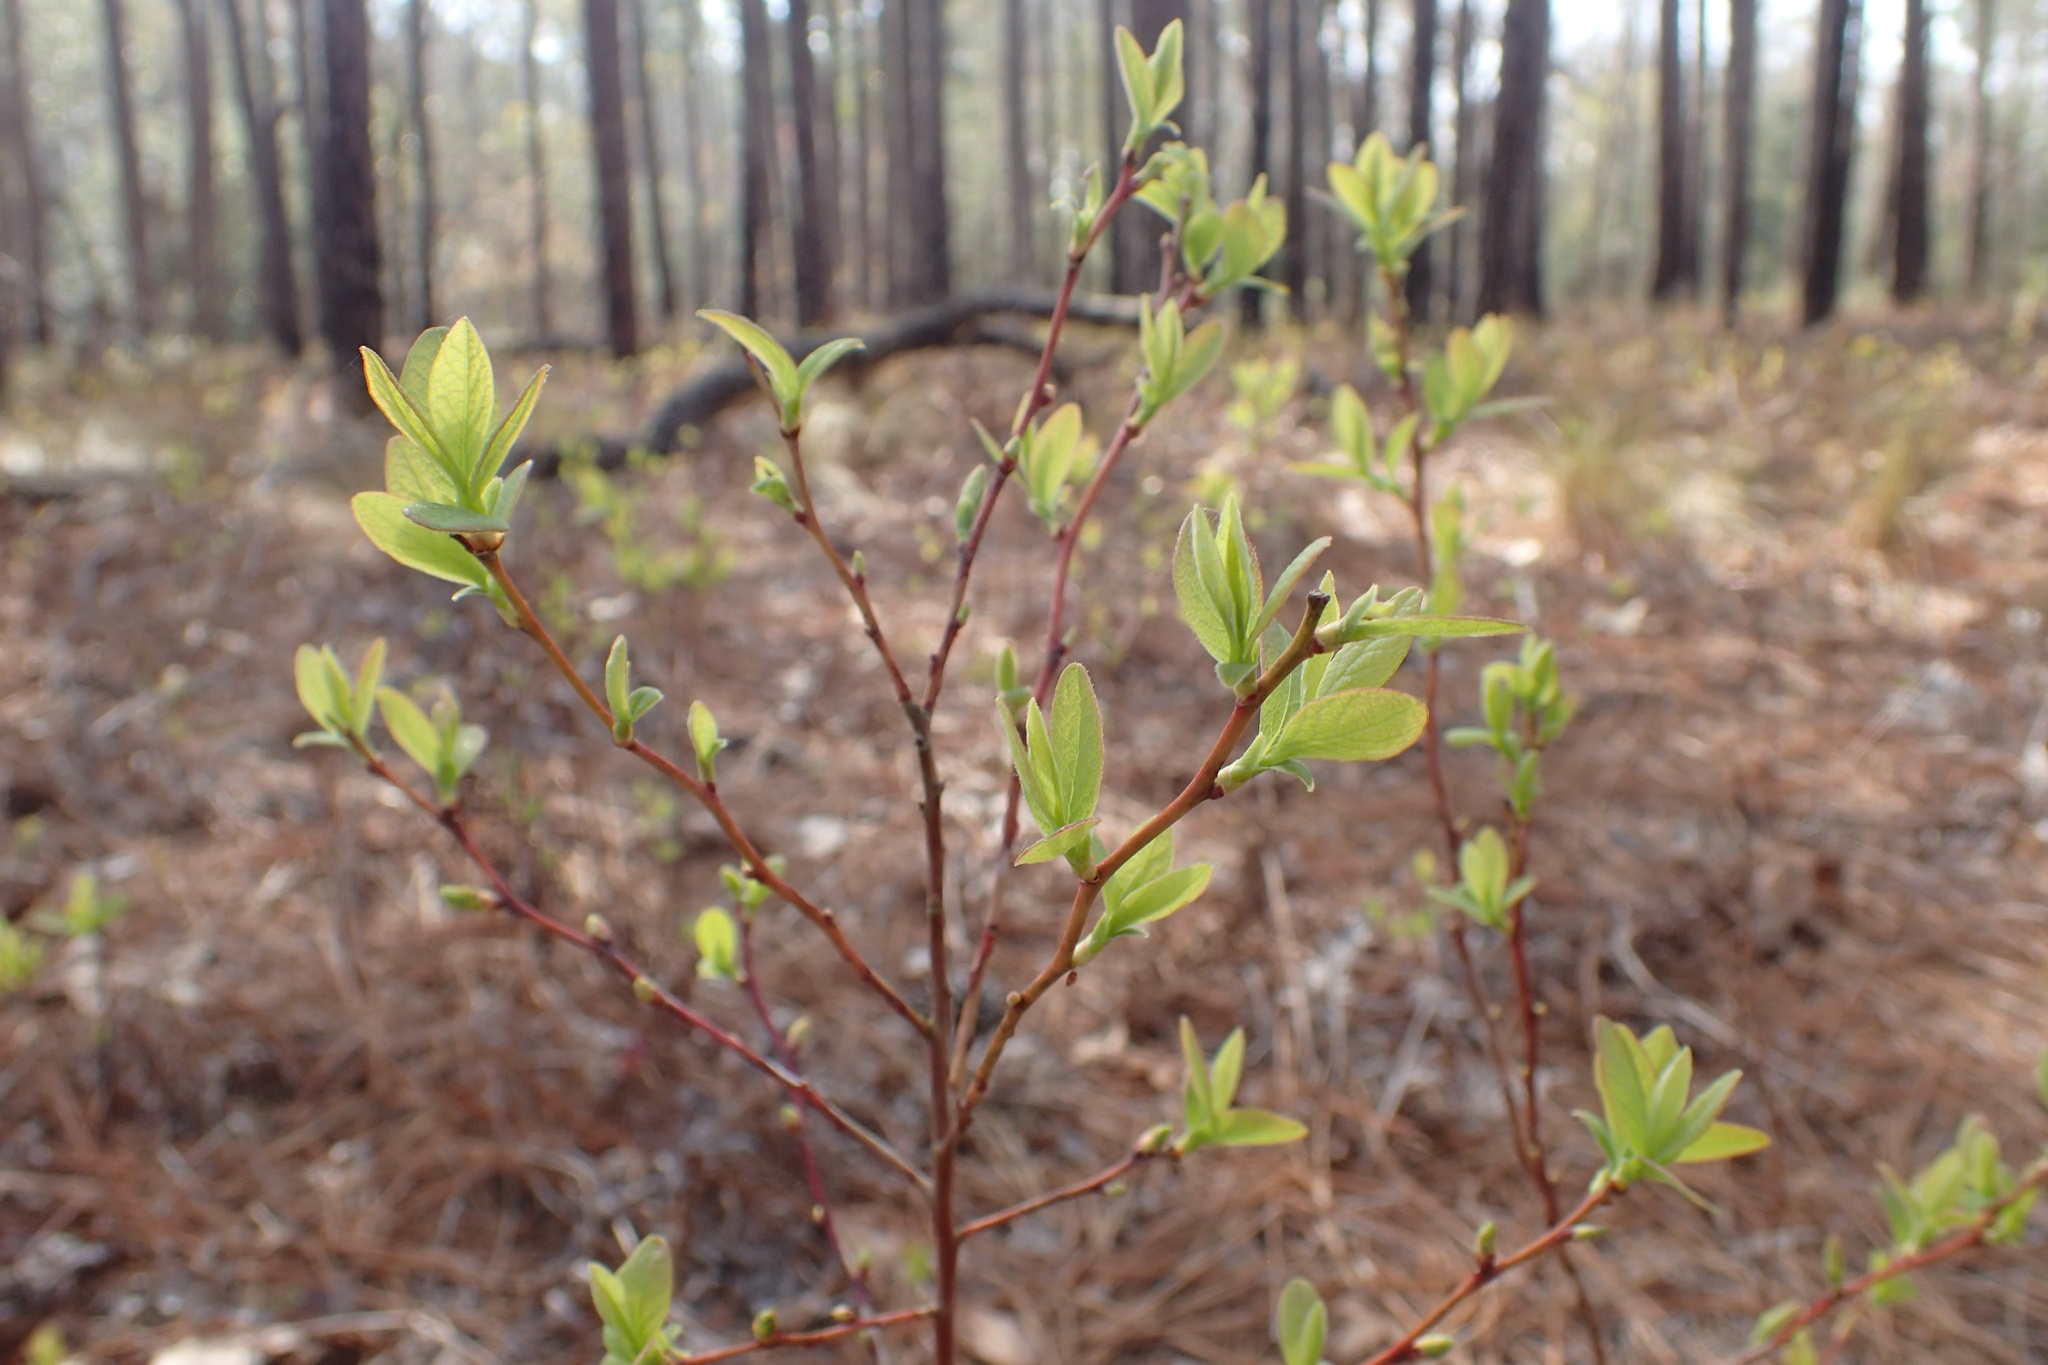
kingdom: Plantae
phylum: Tracheophyta
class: Magnoliopsida
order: Ericales
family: Ericaceae
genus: Lyonia
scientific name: Lyonia mariana
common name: Staggerbush
